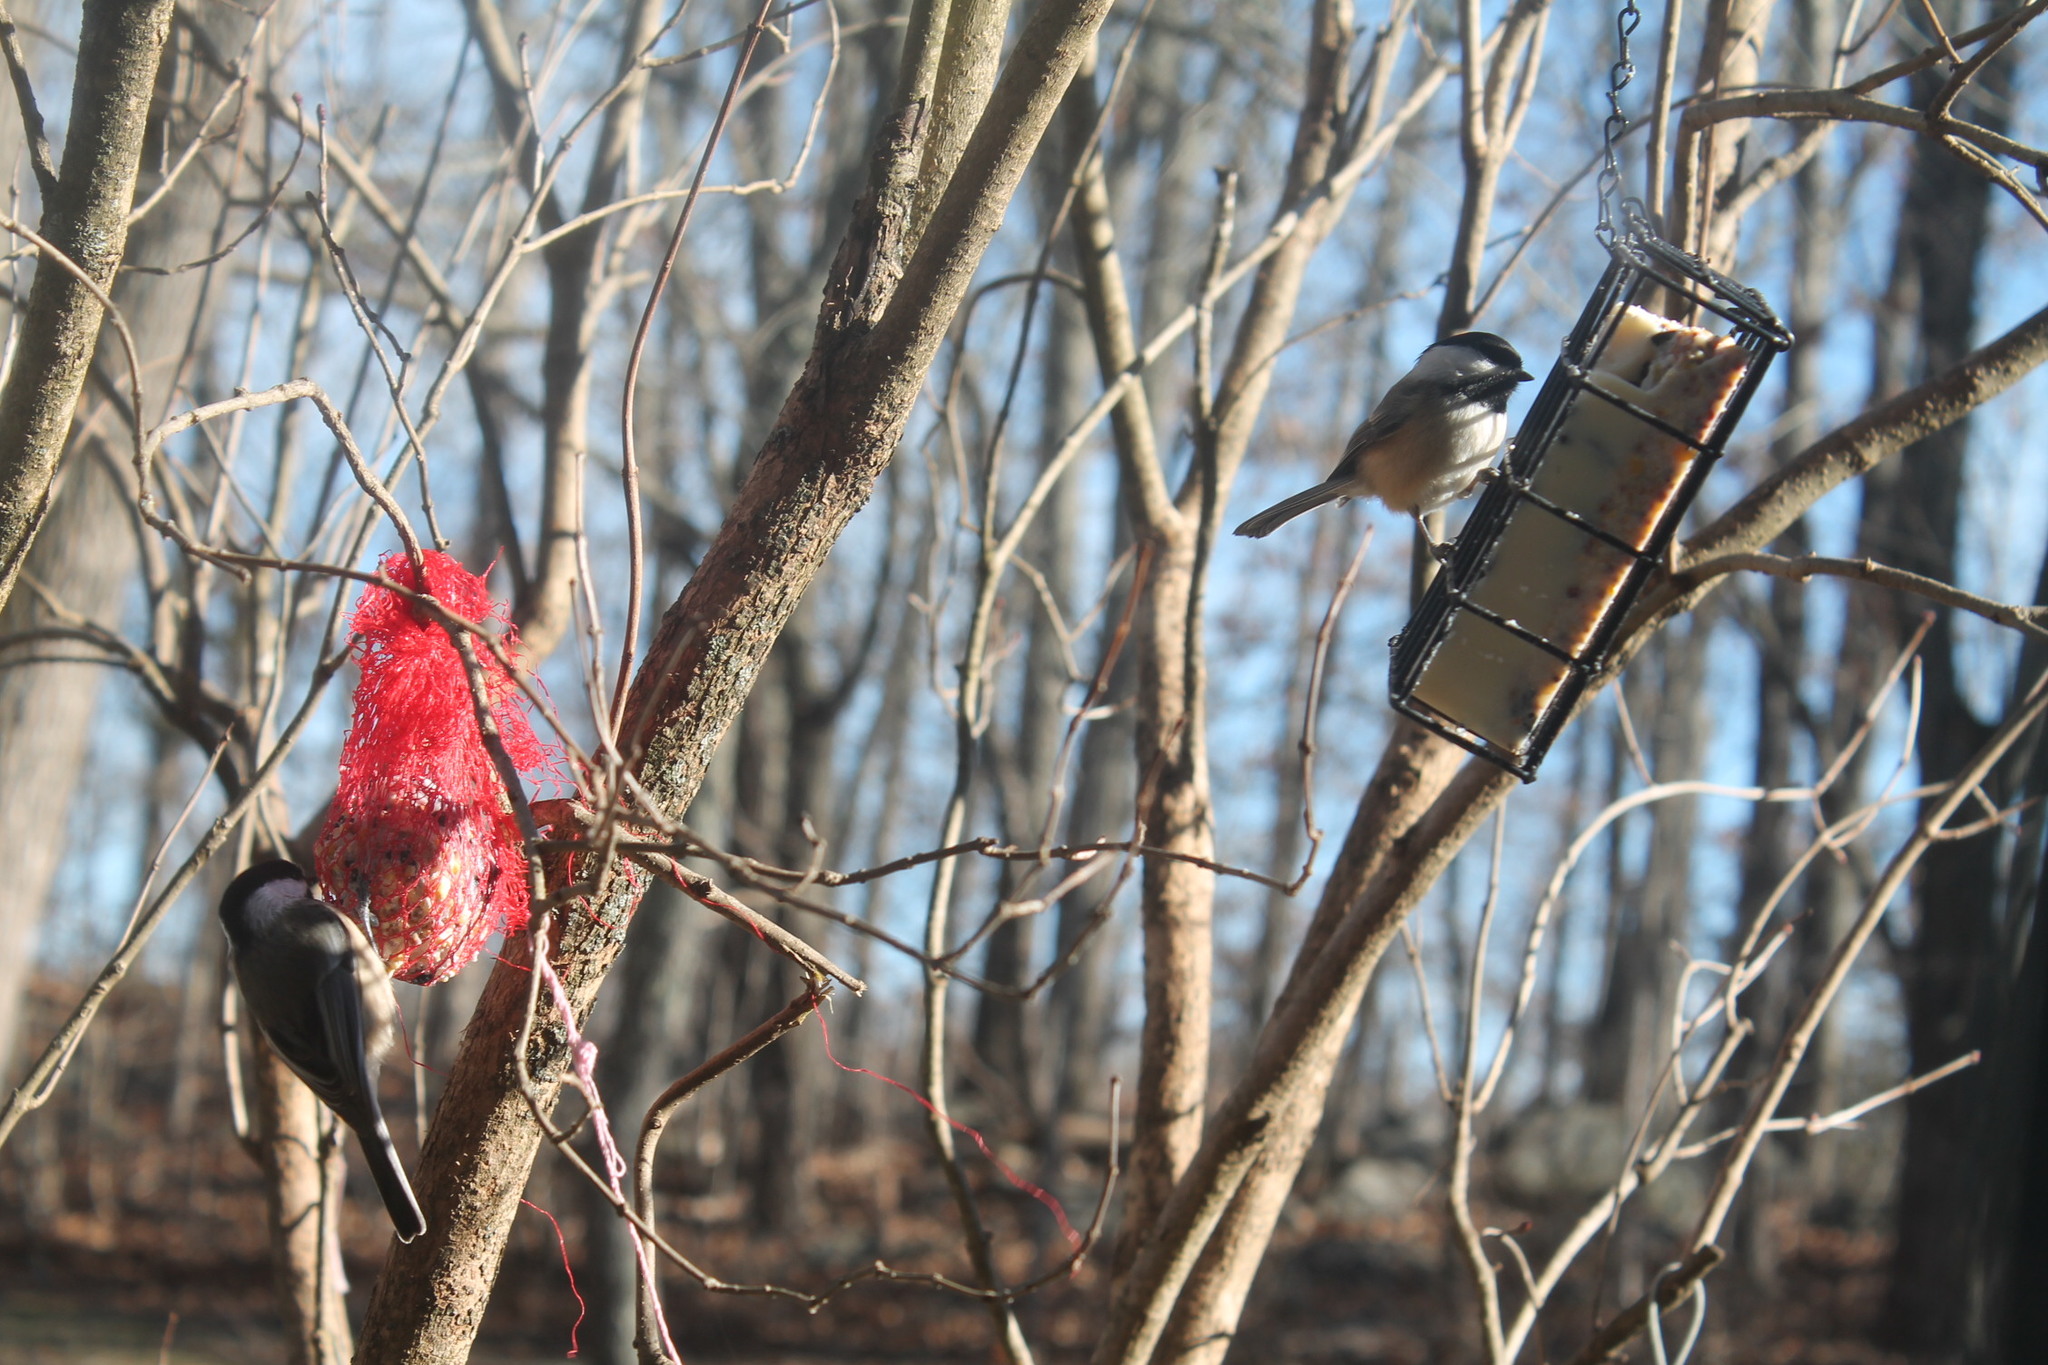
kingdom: Animalia
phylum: Chordata
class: Aves
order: Passeriformes
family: Paridae
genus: Poecile
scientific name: Poecile atricapillus
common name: Black-capped chickadee
